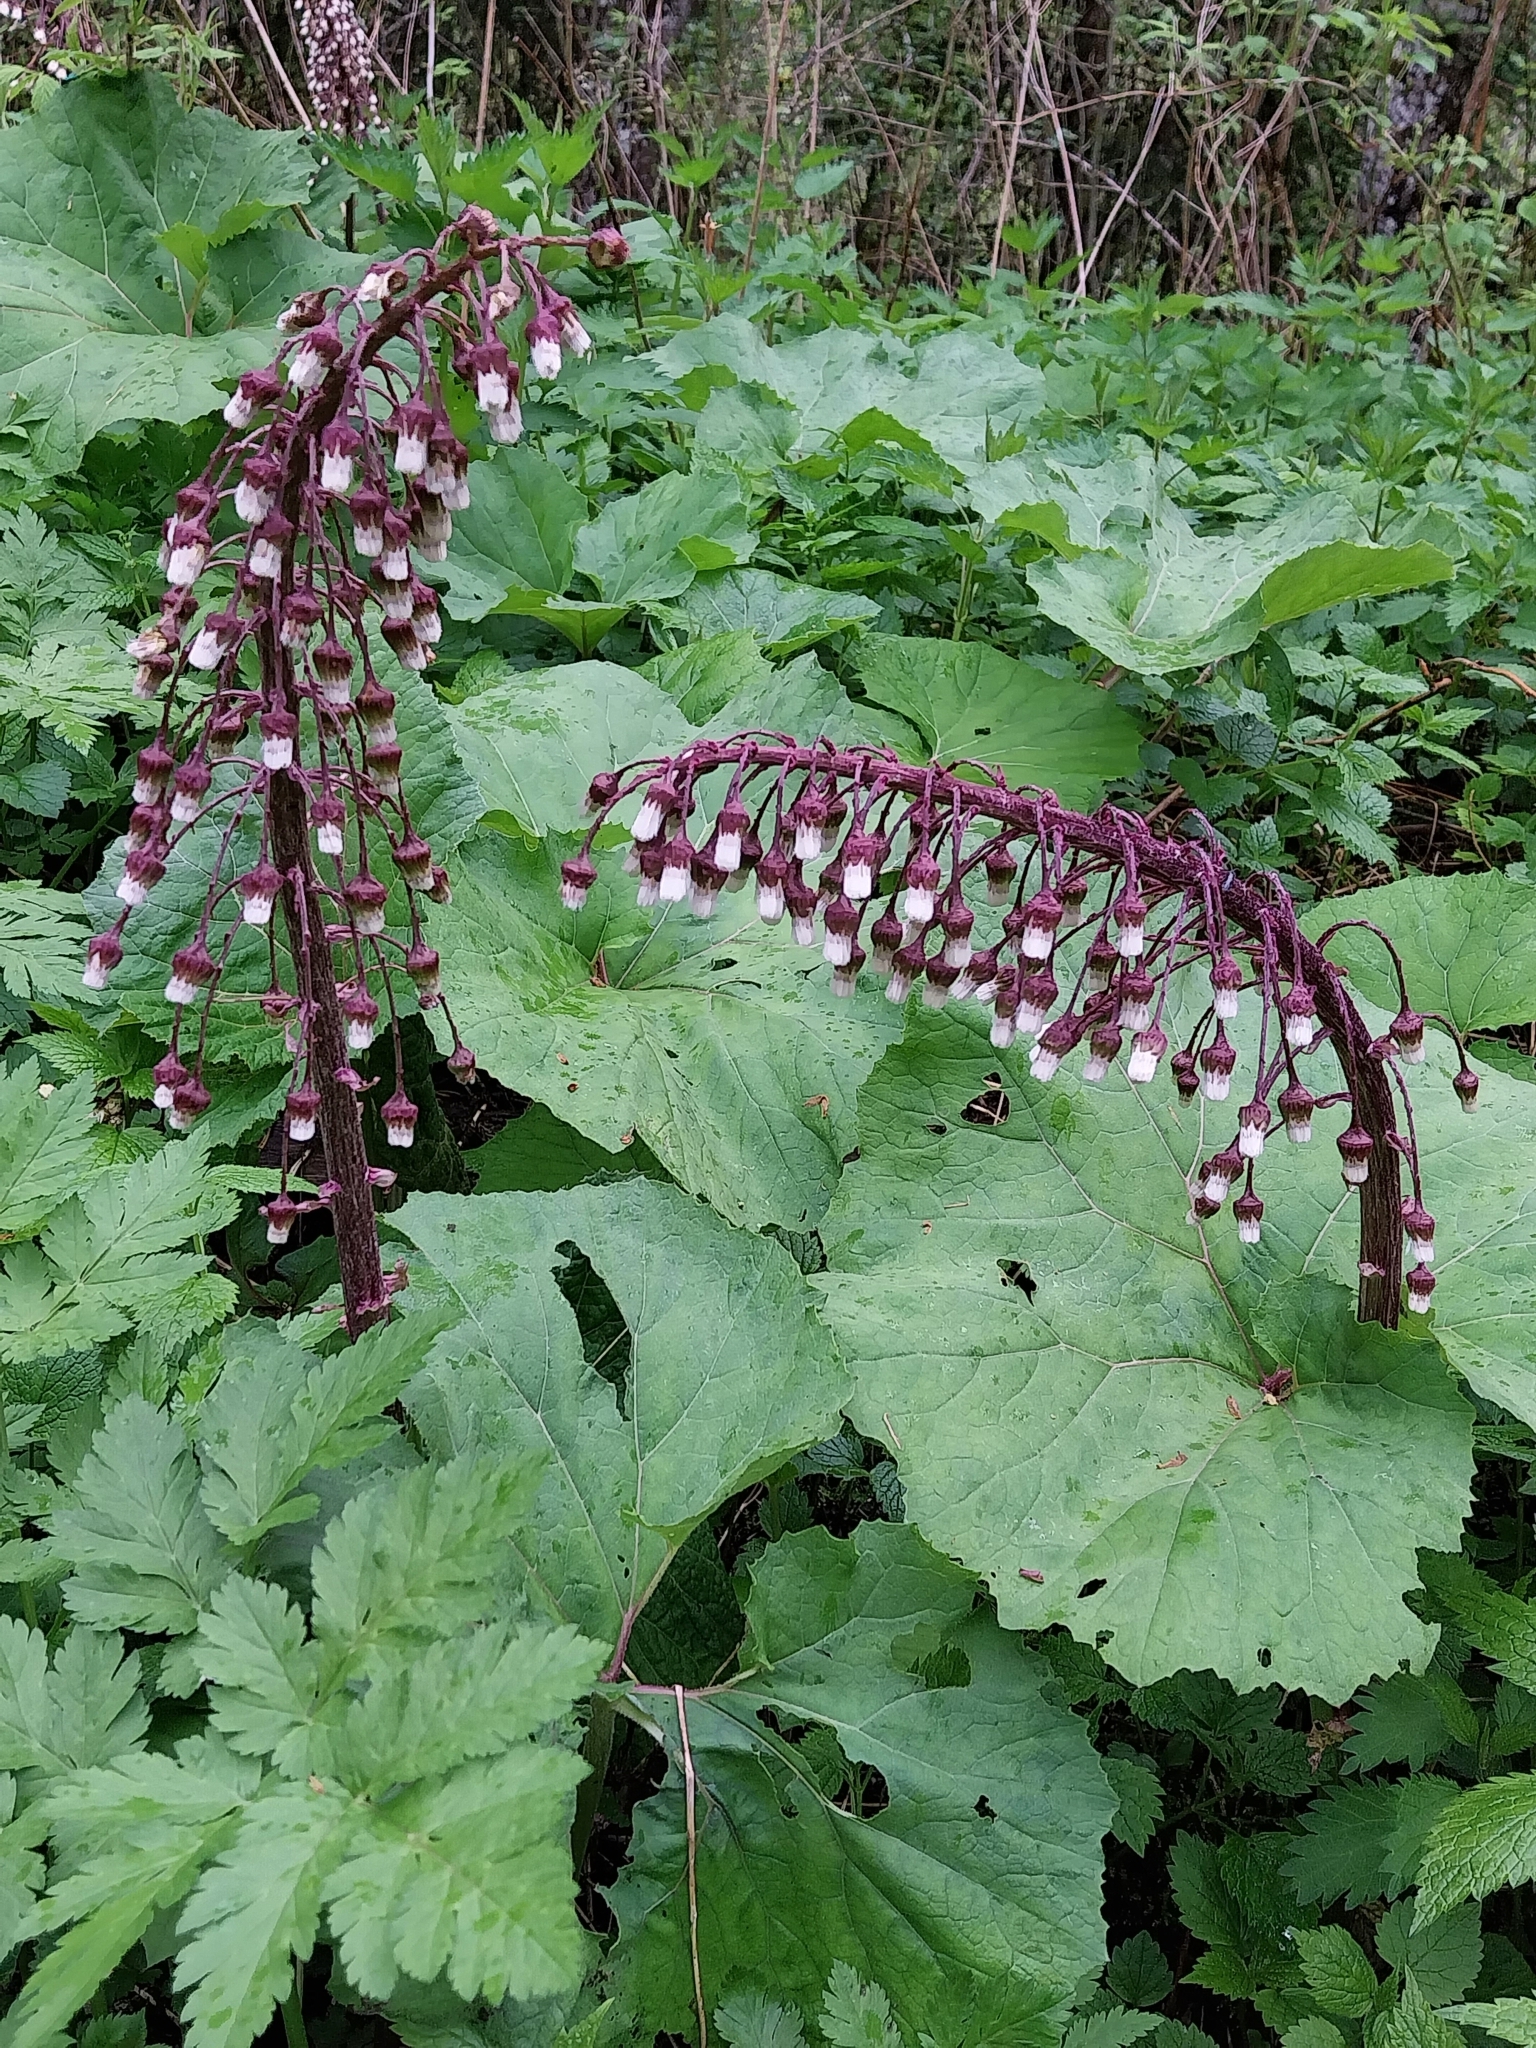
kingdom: Plantae
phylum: Tracheophyta
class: Magnoliopsida
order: Asterales
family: Asteraceae
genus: Petasites
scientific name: Petasites hybridus
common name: Butterbur
